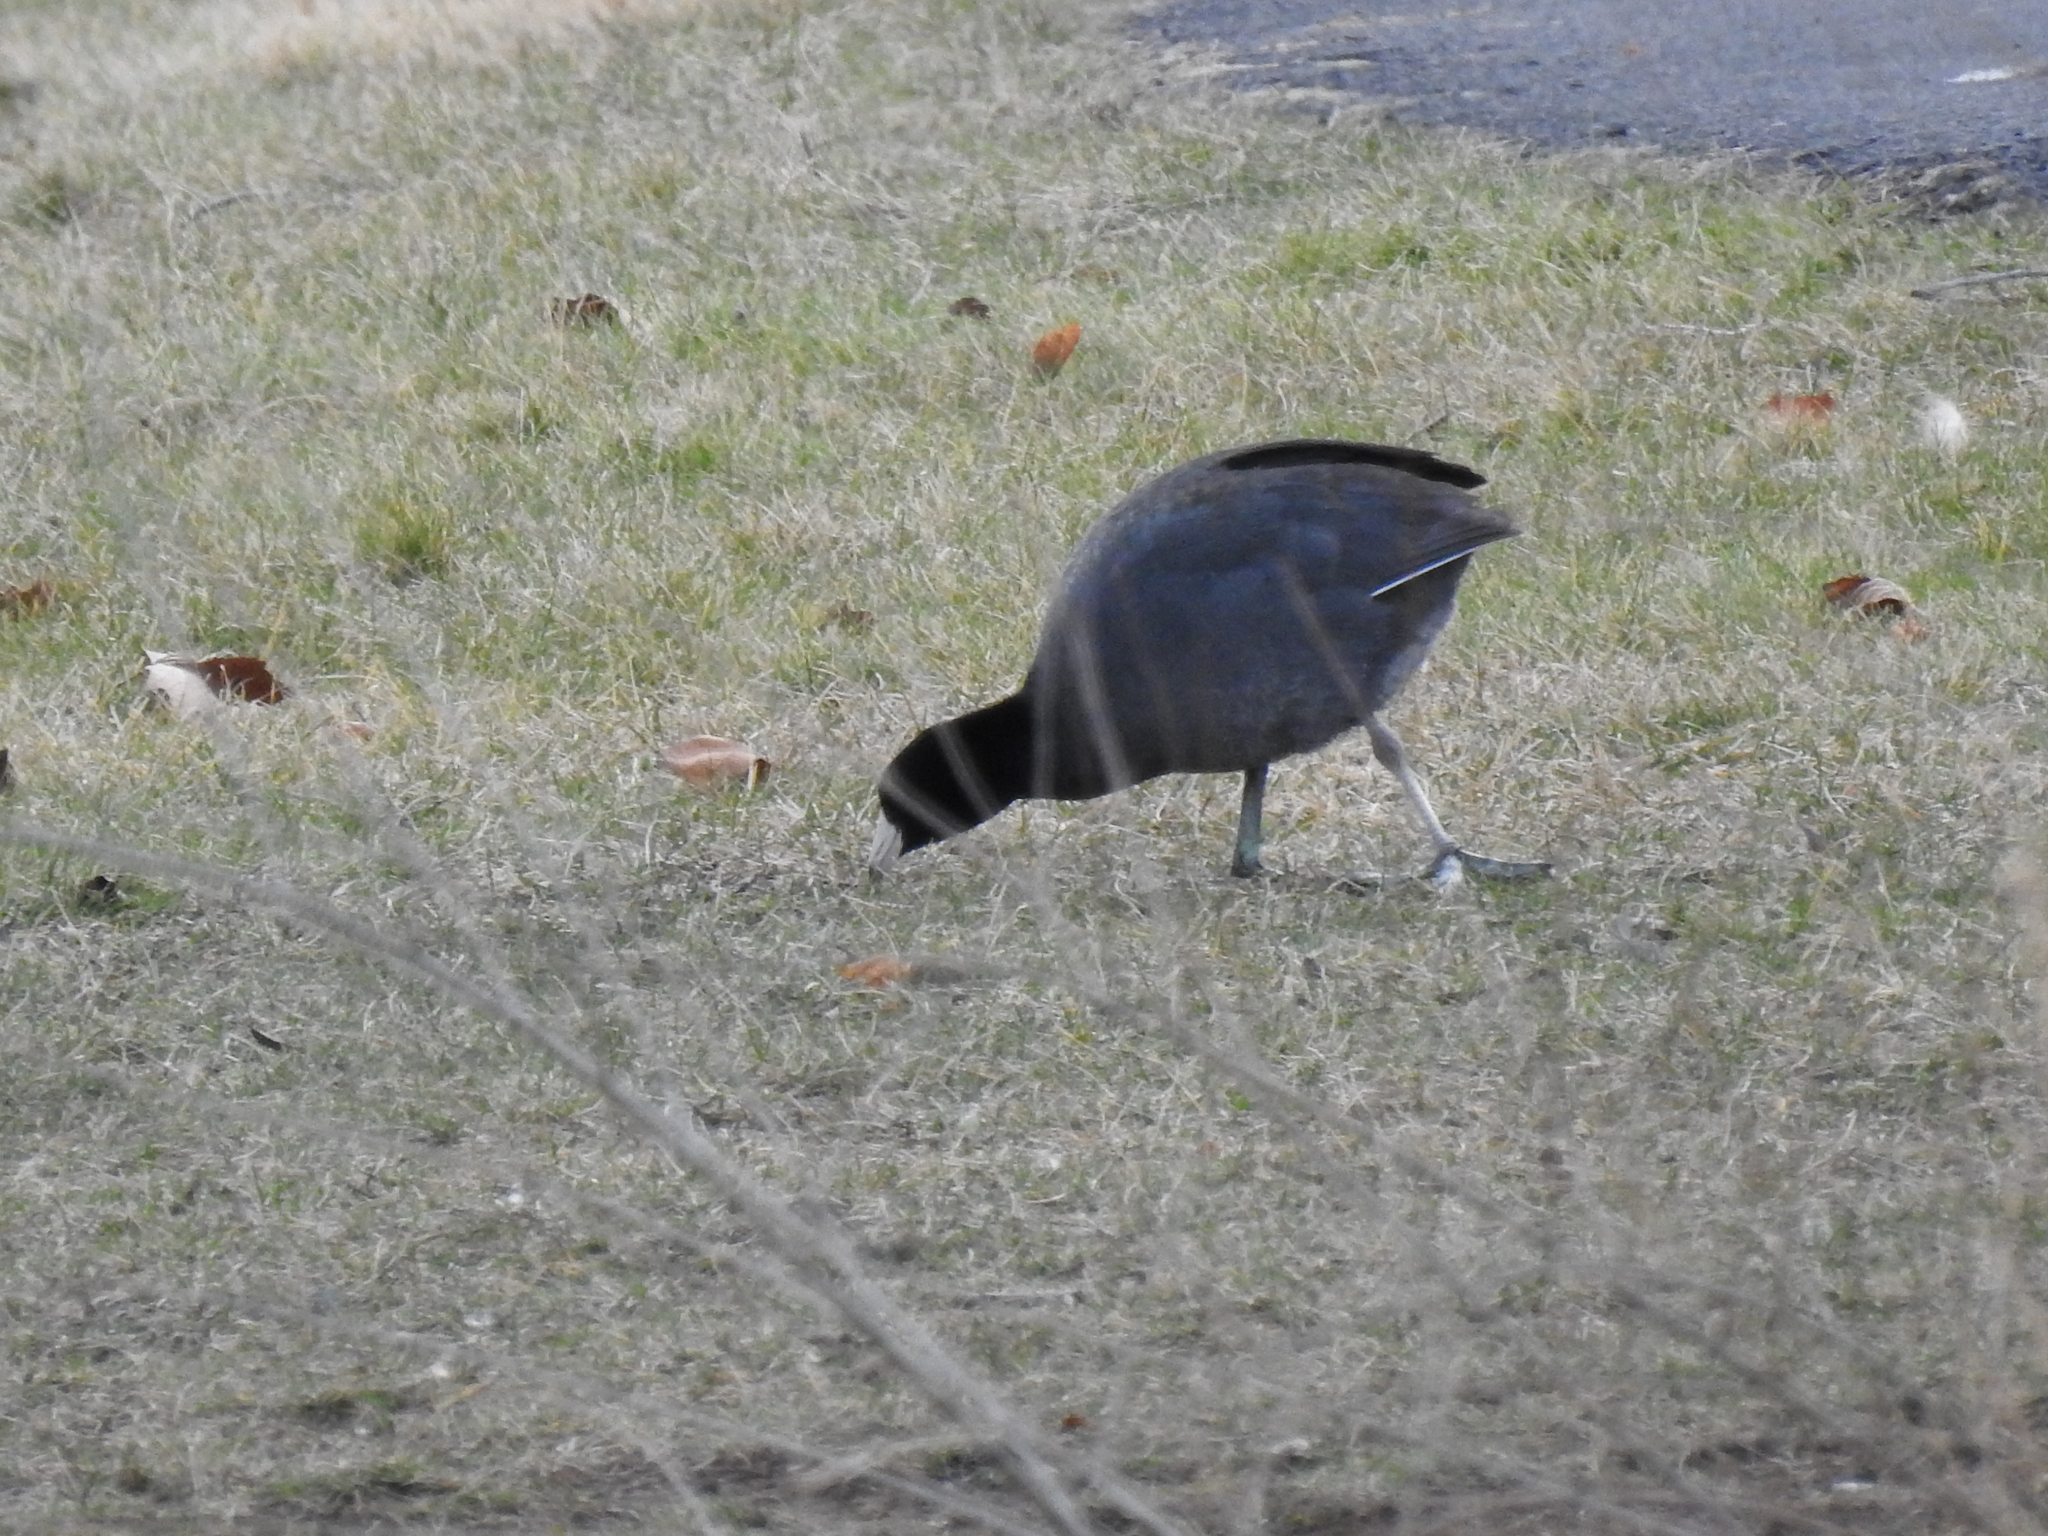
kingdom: Animalia
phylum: Chordata
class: Aves
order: Gruiformes
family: Rallidae
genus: Fulica
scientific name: Fulica americana
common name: American coot
